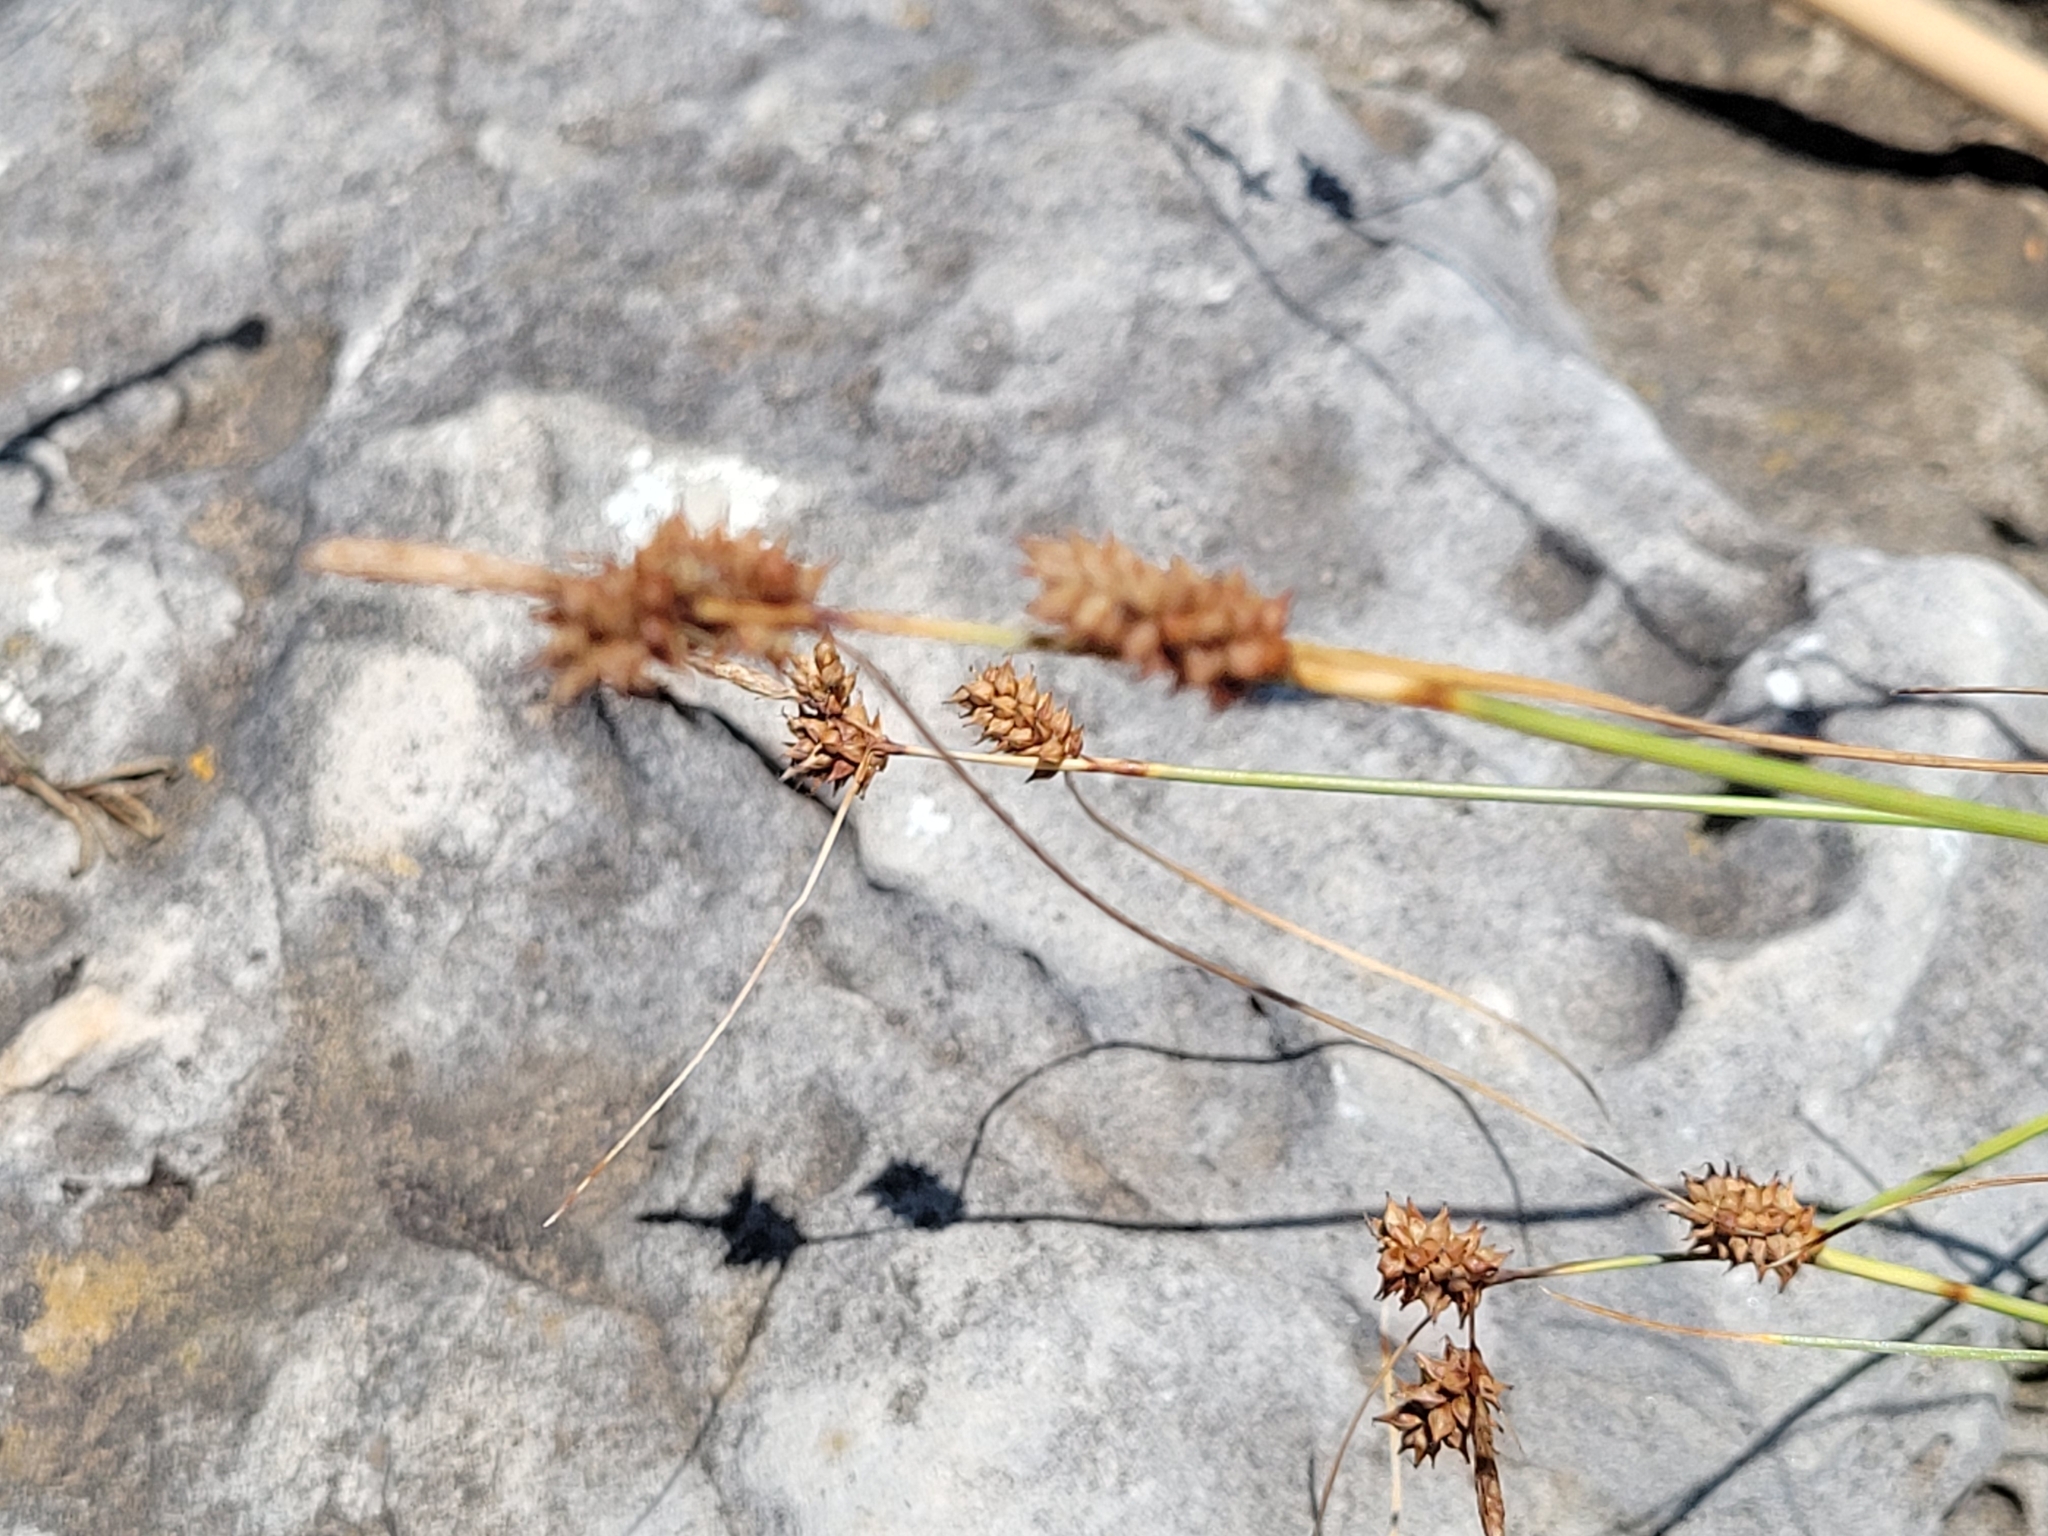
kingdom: Plantae
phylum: Tracheophyta
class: Liliopsida
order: Poales
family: Cyperaceae
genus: Carex
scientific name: Carex extensa
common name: Long-bracted sedge
